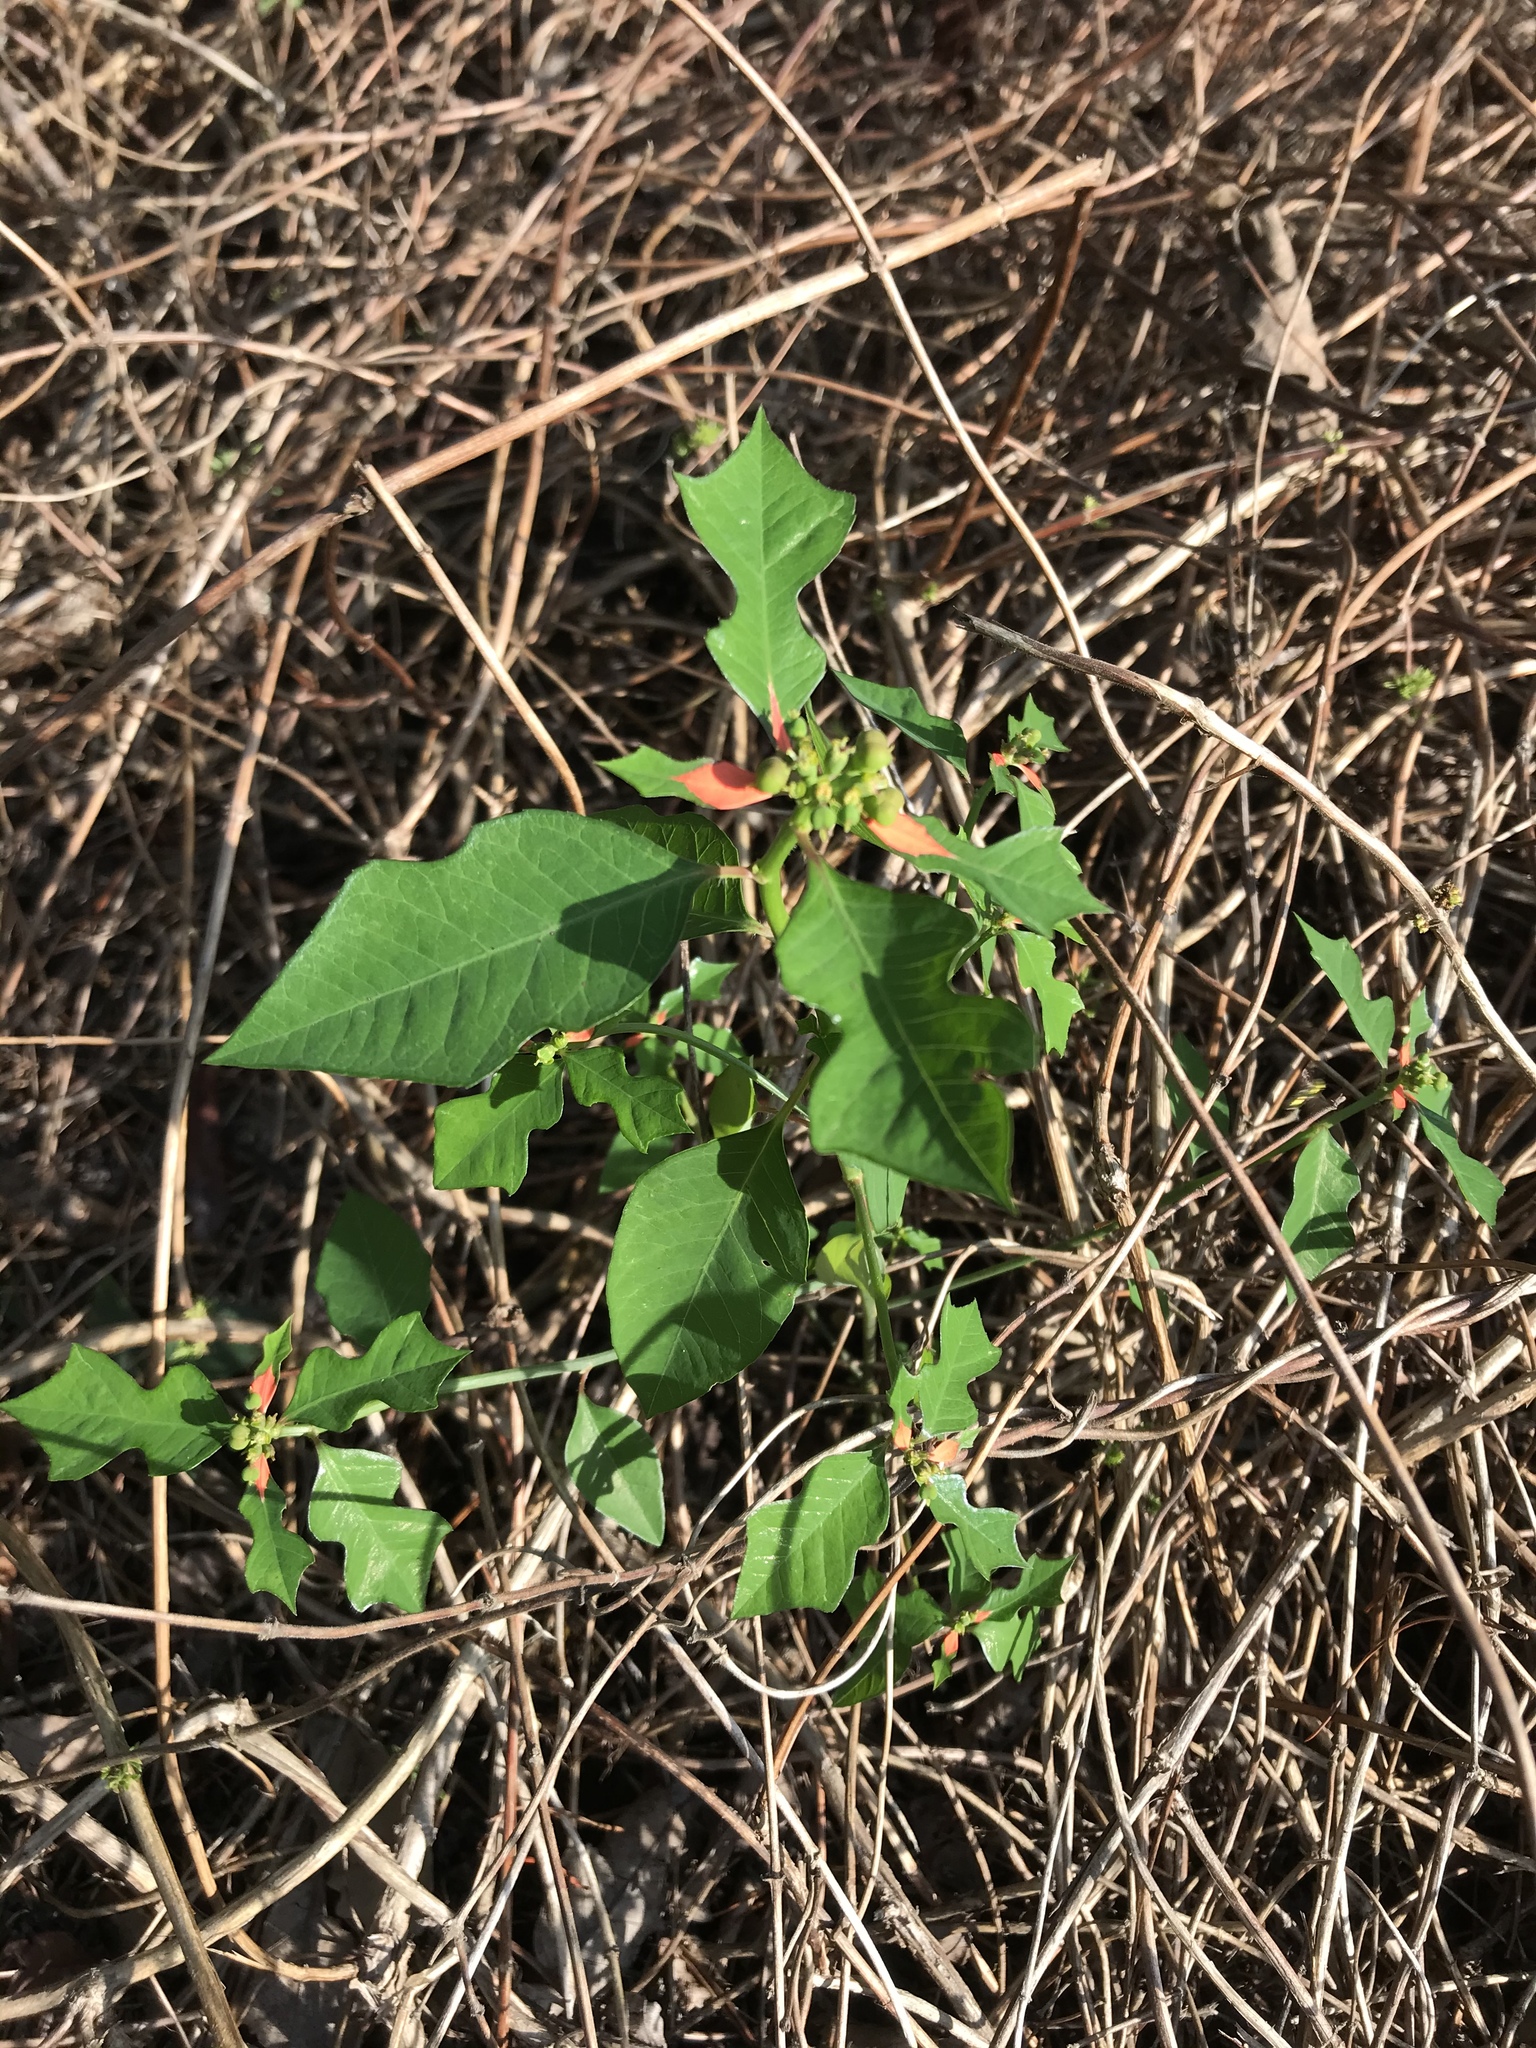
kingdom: Plantae
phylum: Tracheophyta
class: Magnoliopsida
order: Malpighiales
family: Euphorbiaceae
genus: Euphorbia
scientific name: Euphorbia heterophylla
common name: Mexican fireplant
